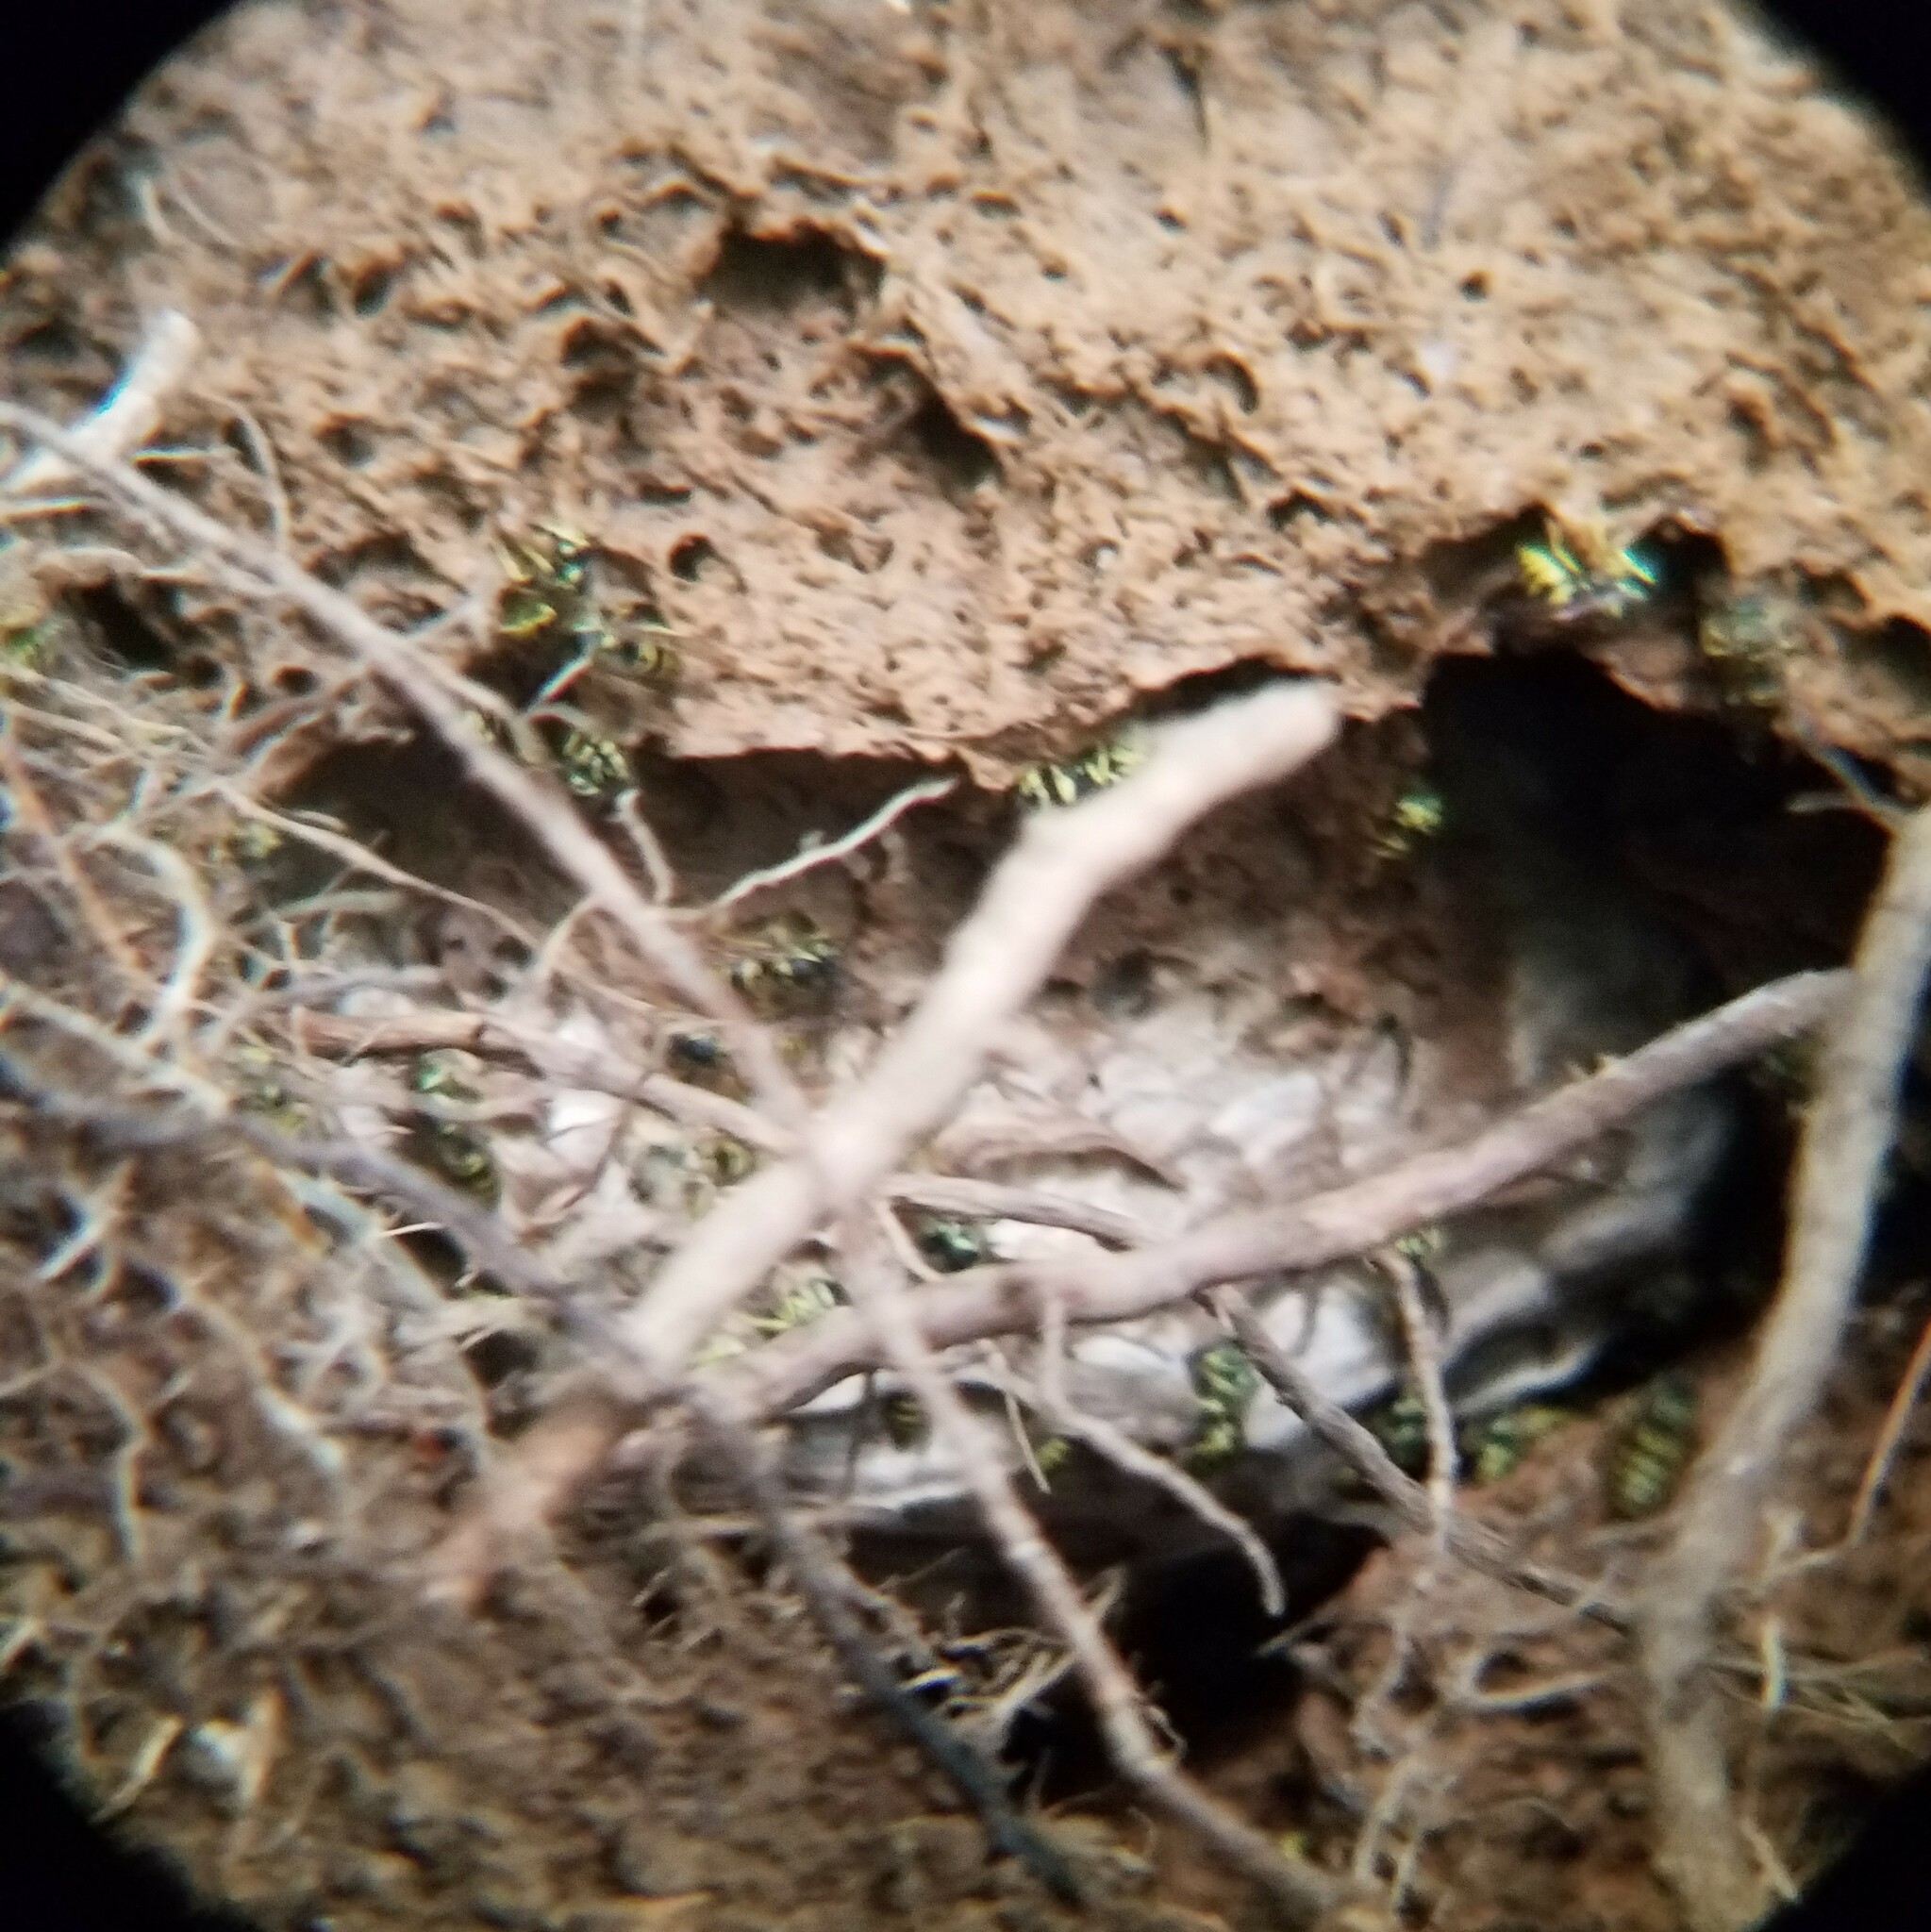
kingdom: Animalia
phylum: Arthropoda
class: Insecta
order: Hymenoptera
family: Vespidae
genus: Vespula
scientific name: Vespula maculifrons
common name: Eastern yellowjacket
